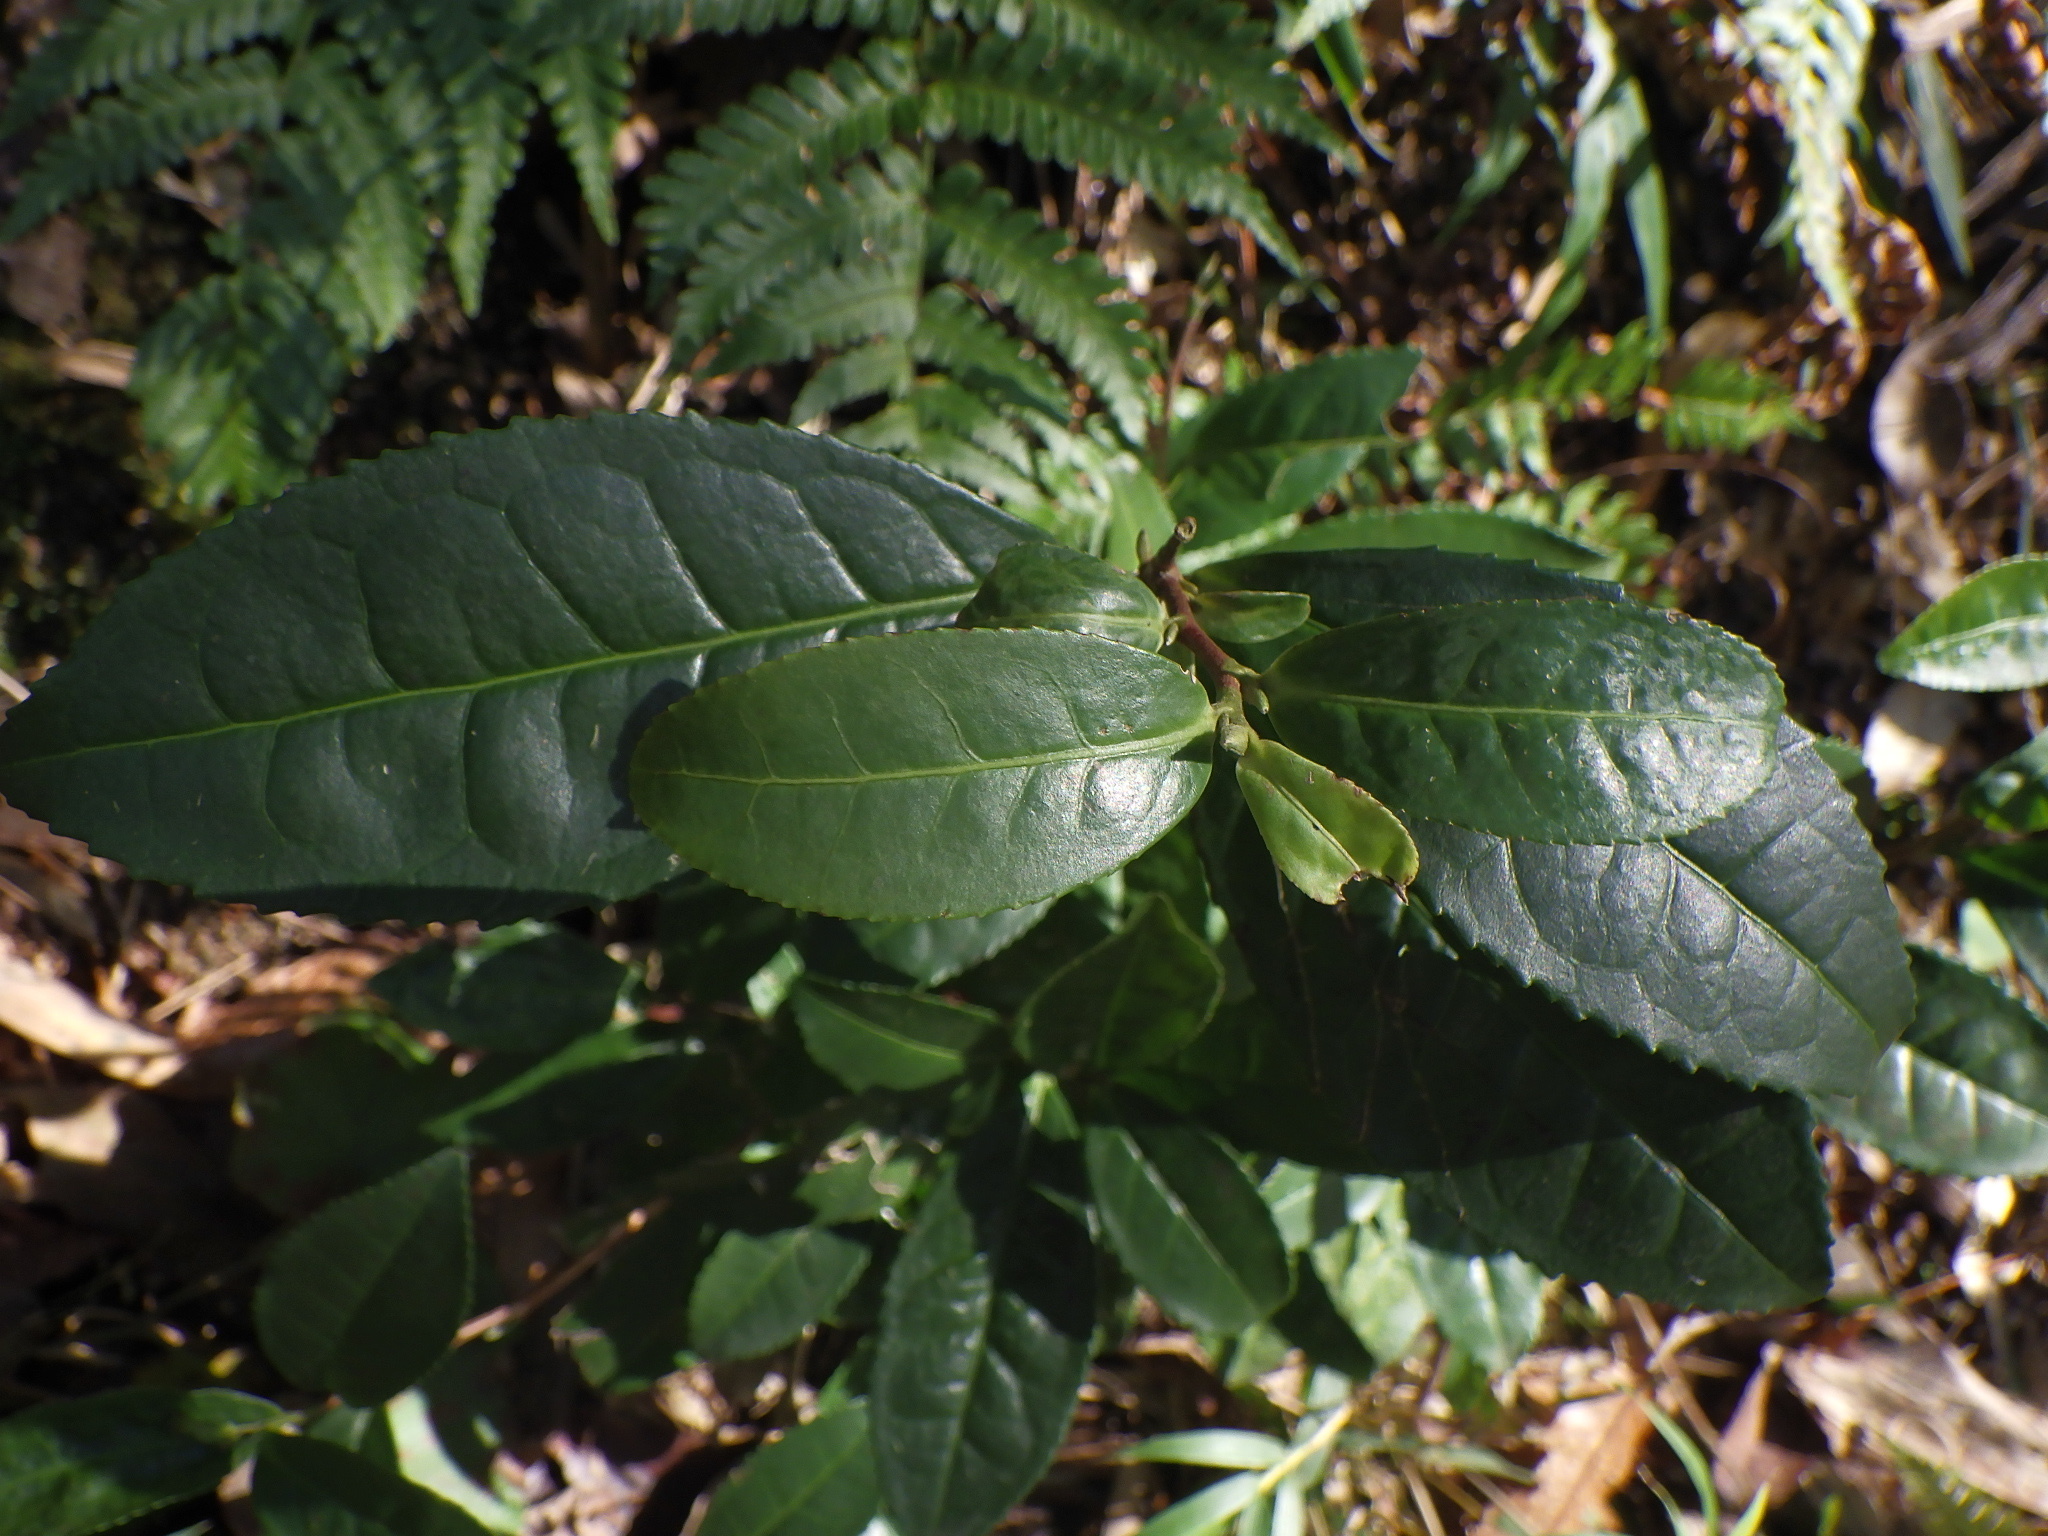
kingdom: Plantae
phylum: Tracheophyta
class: Magnoliopsida
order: Ericales
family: Theaceae
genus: Camellia
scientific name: Camellia sinensis
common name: Tea
